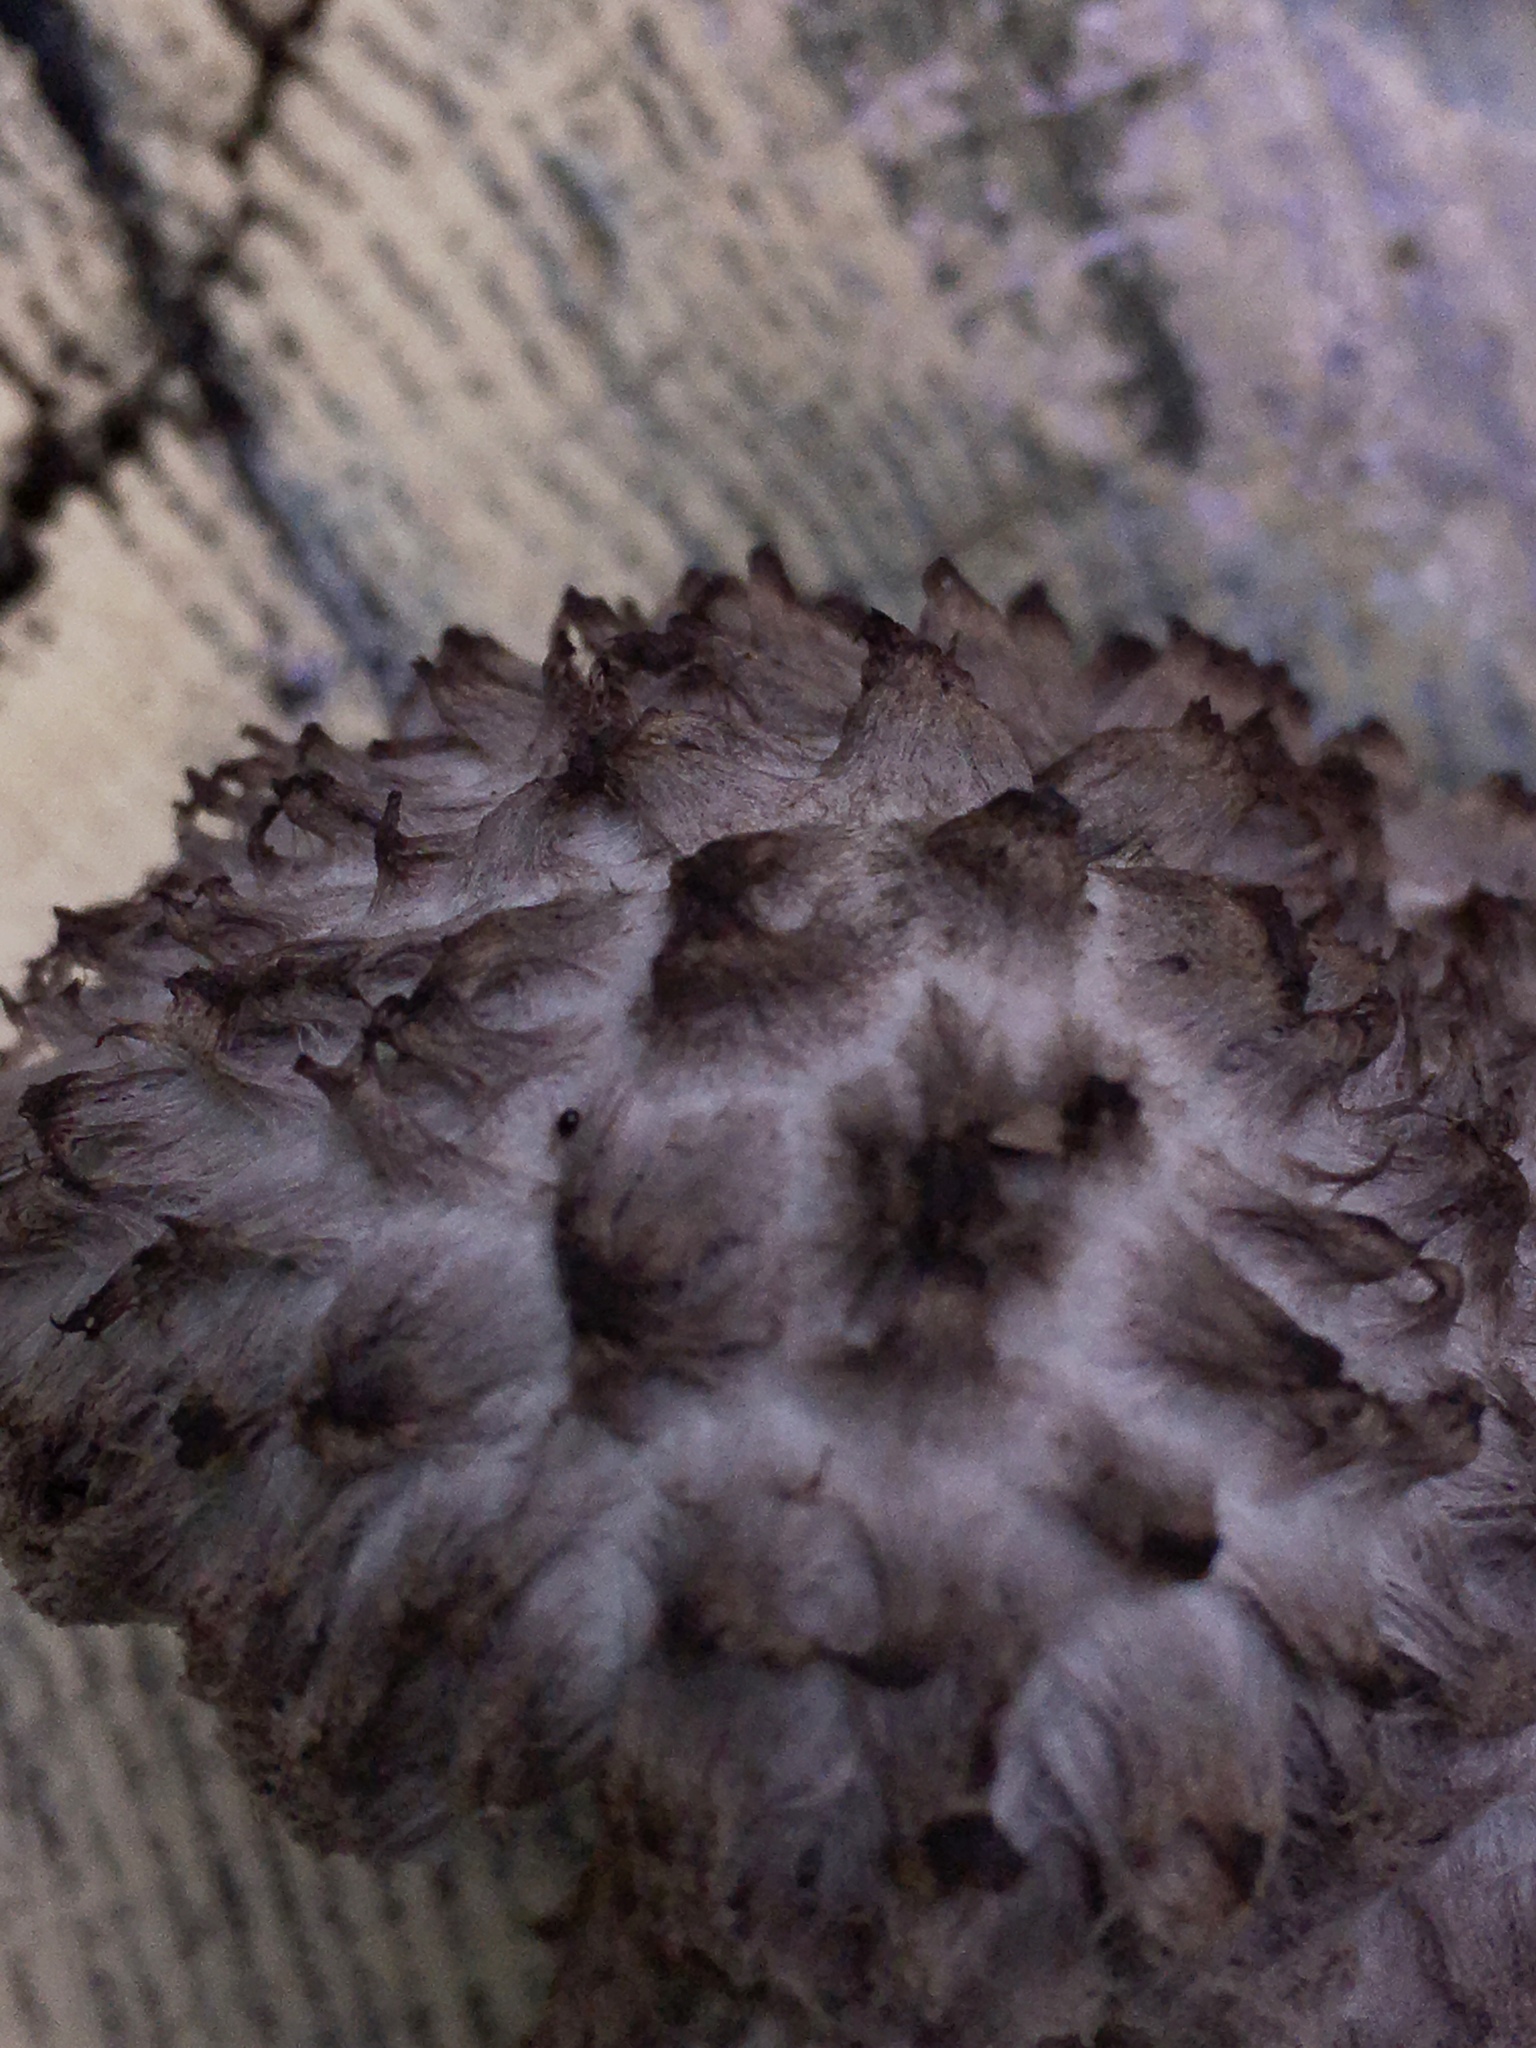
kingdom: Fungi
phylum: Basidiomycota
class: Agaricomycetes
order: Boletales
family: Boletaceae
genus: Strobilomyces
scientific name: Strobilomyces strobilaceus
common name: Old man of the woods
